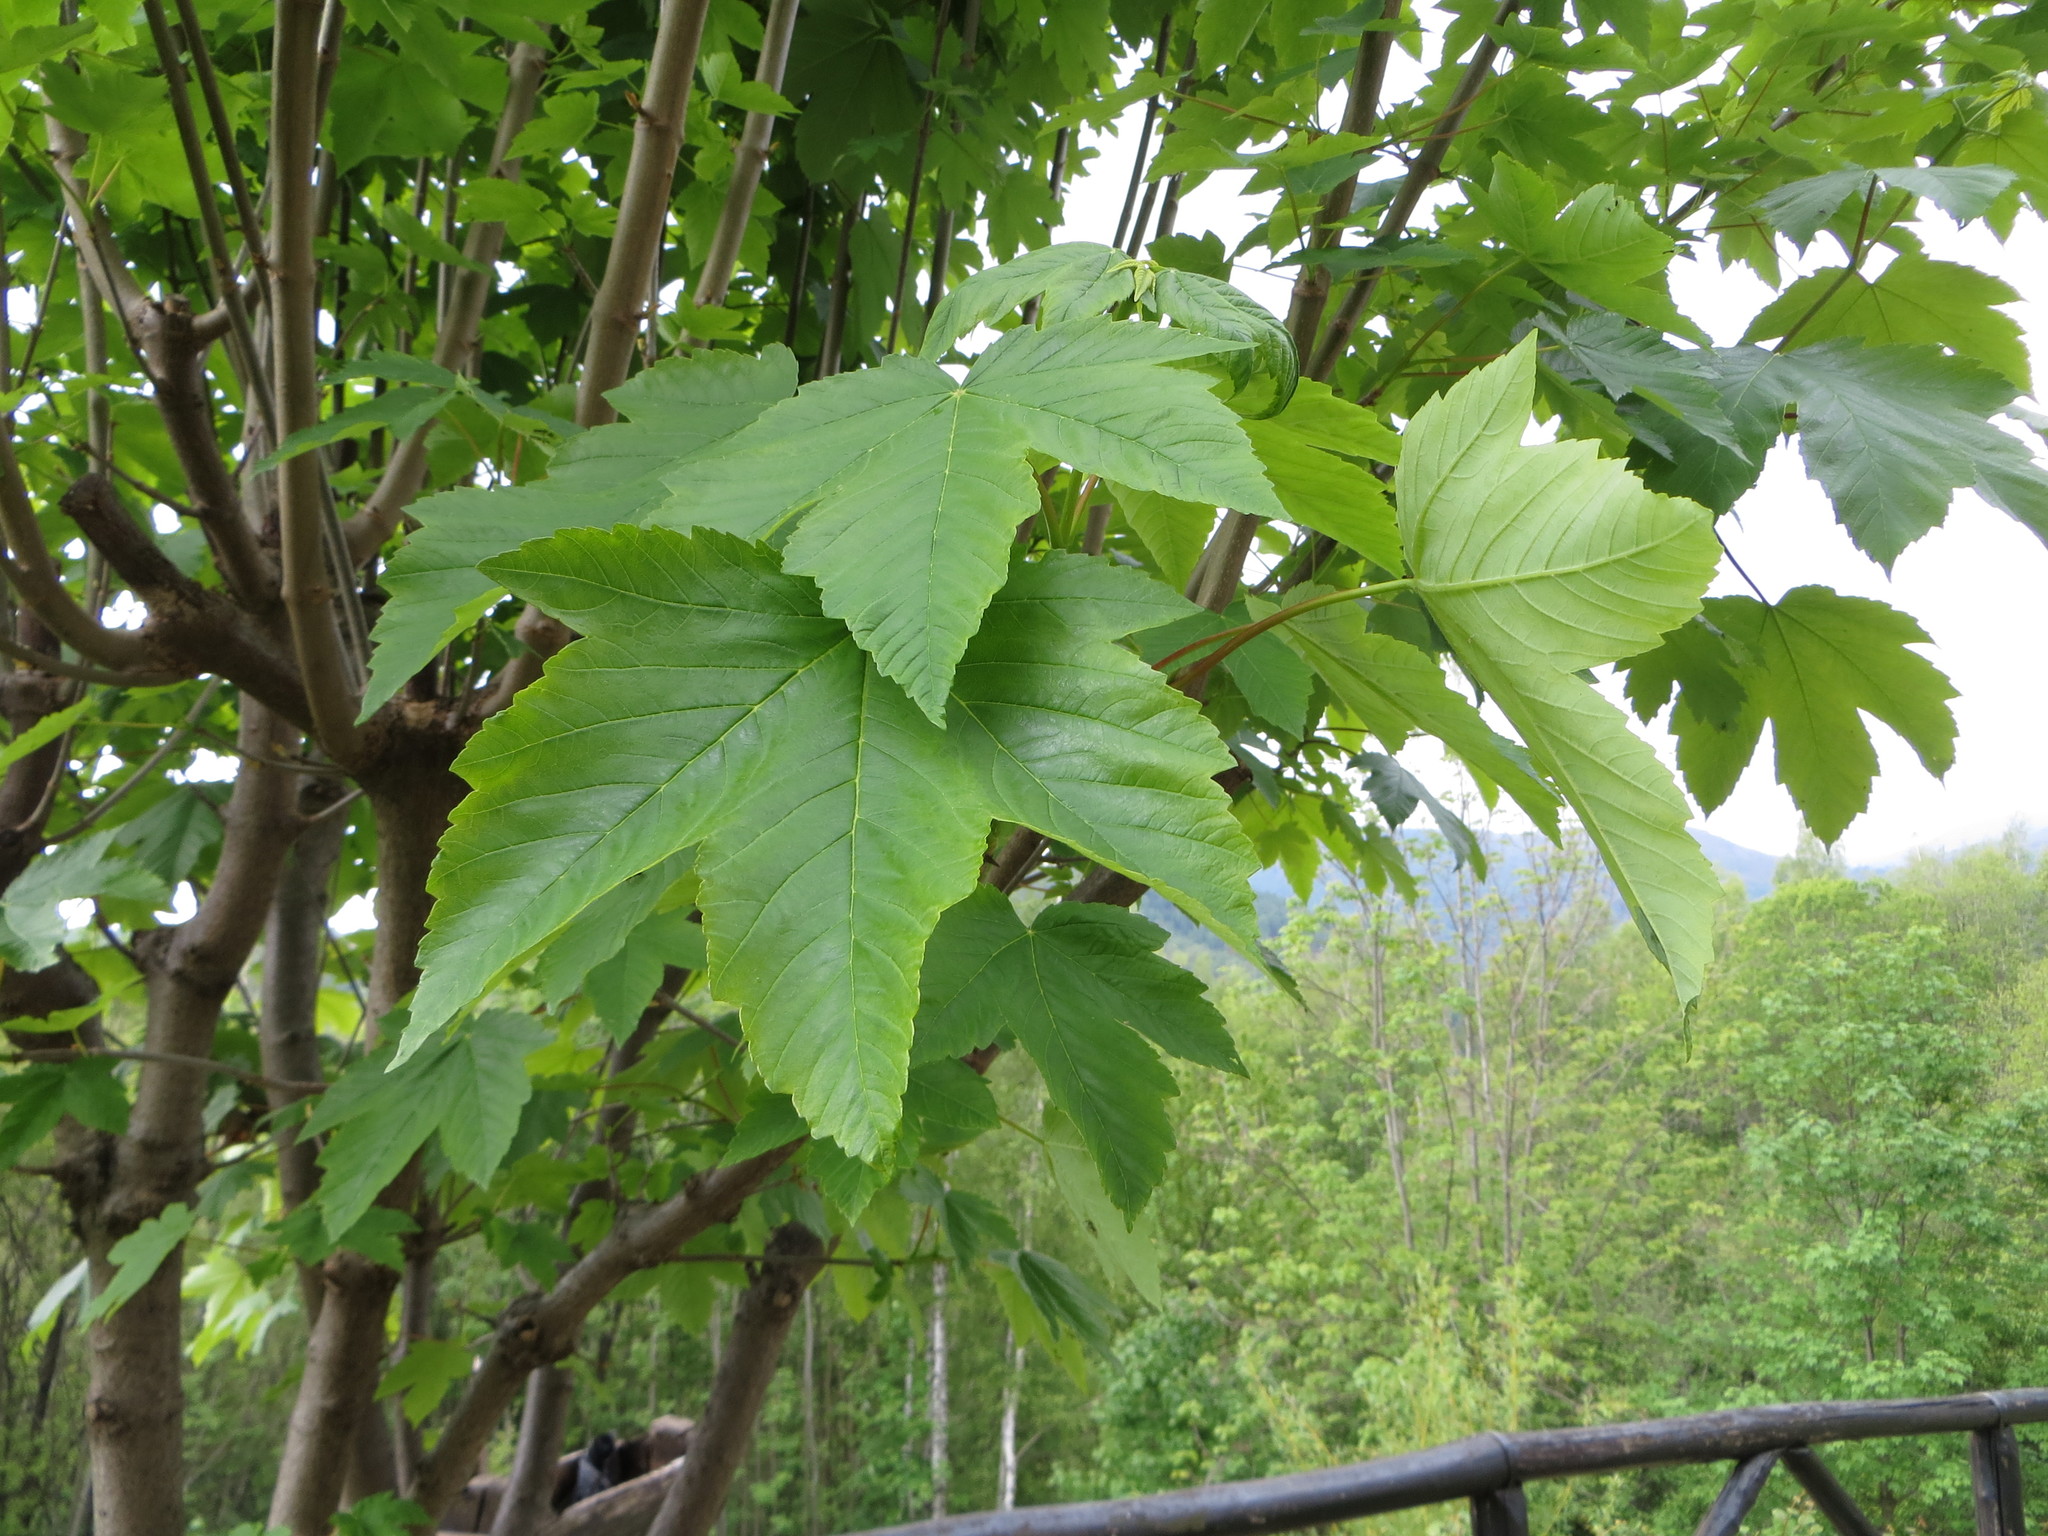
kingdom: Plantae
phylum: Tracheophyta
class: Magnoliopsida
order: Sapindales
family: Sapindaceae
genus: Acer
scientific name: Acer pseudoplatanus
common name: Sycamore
